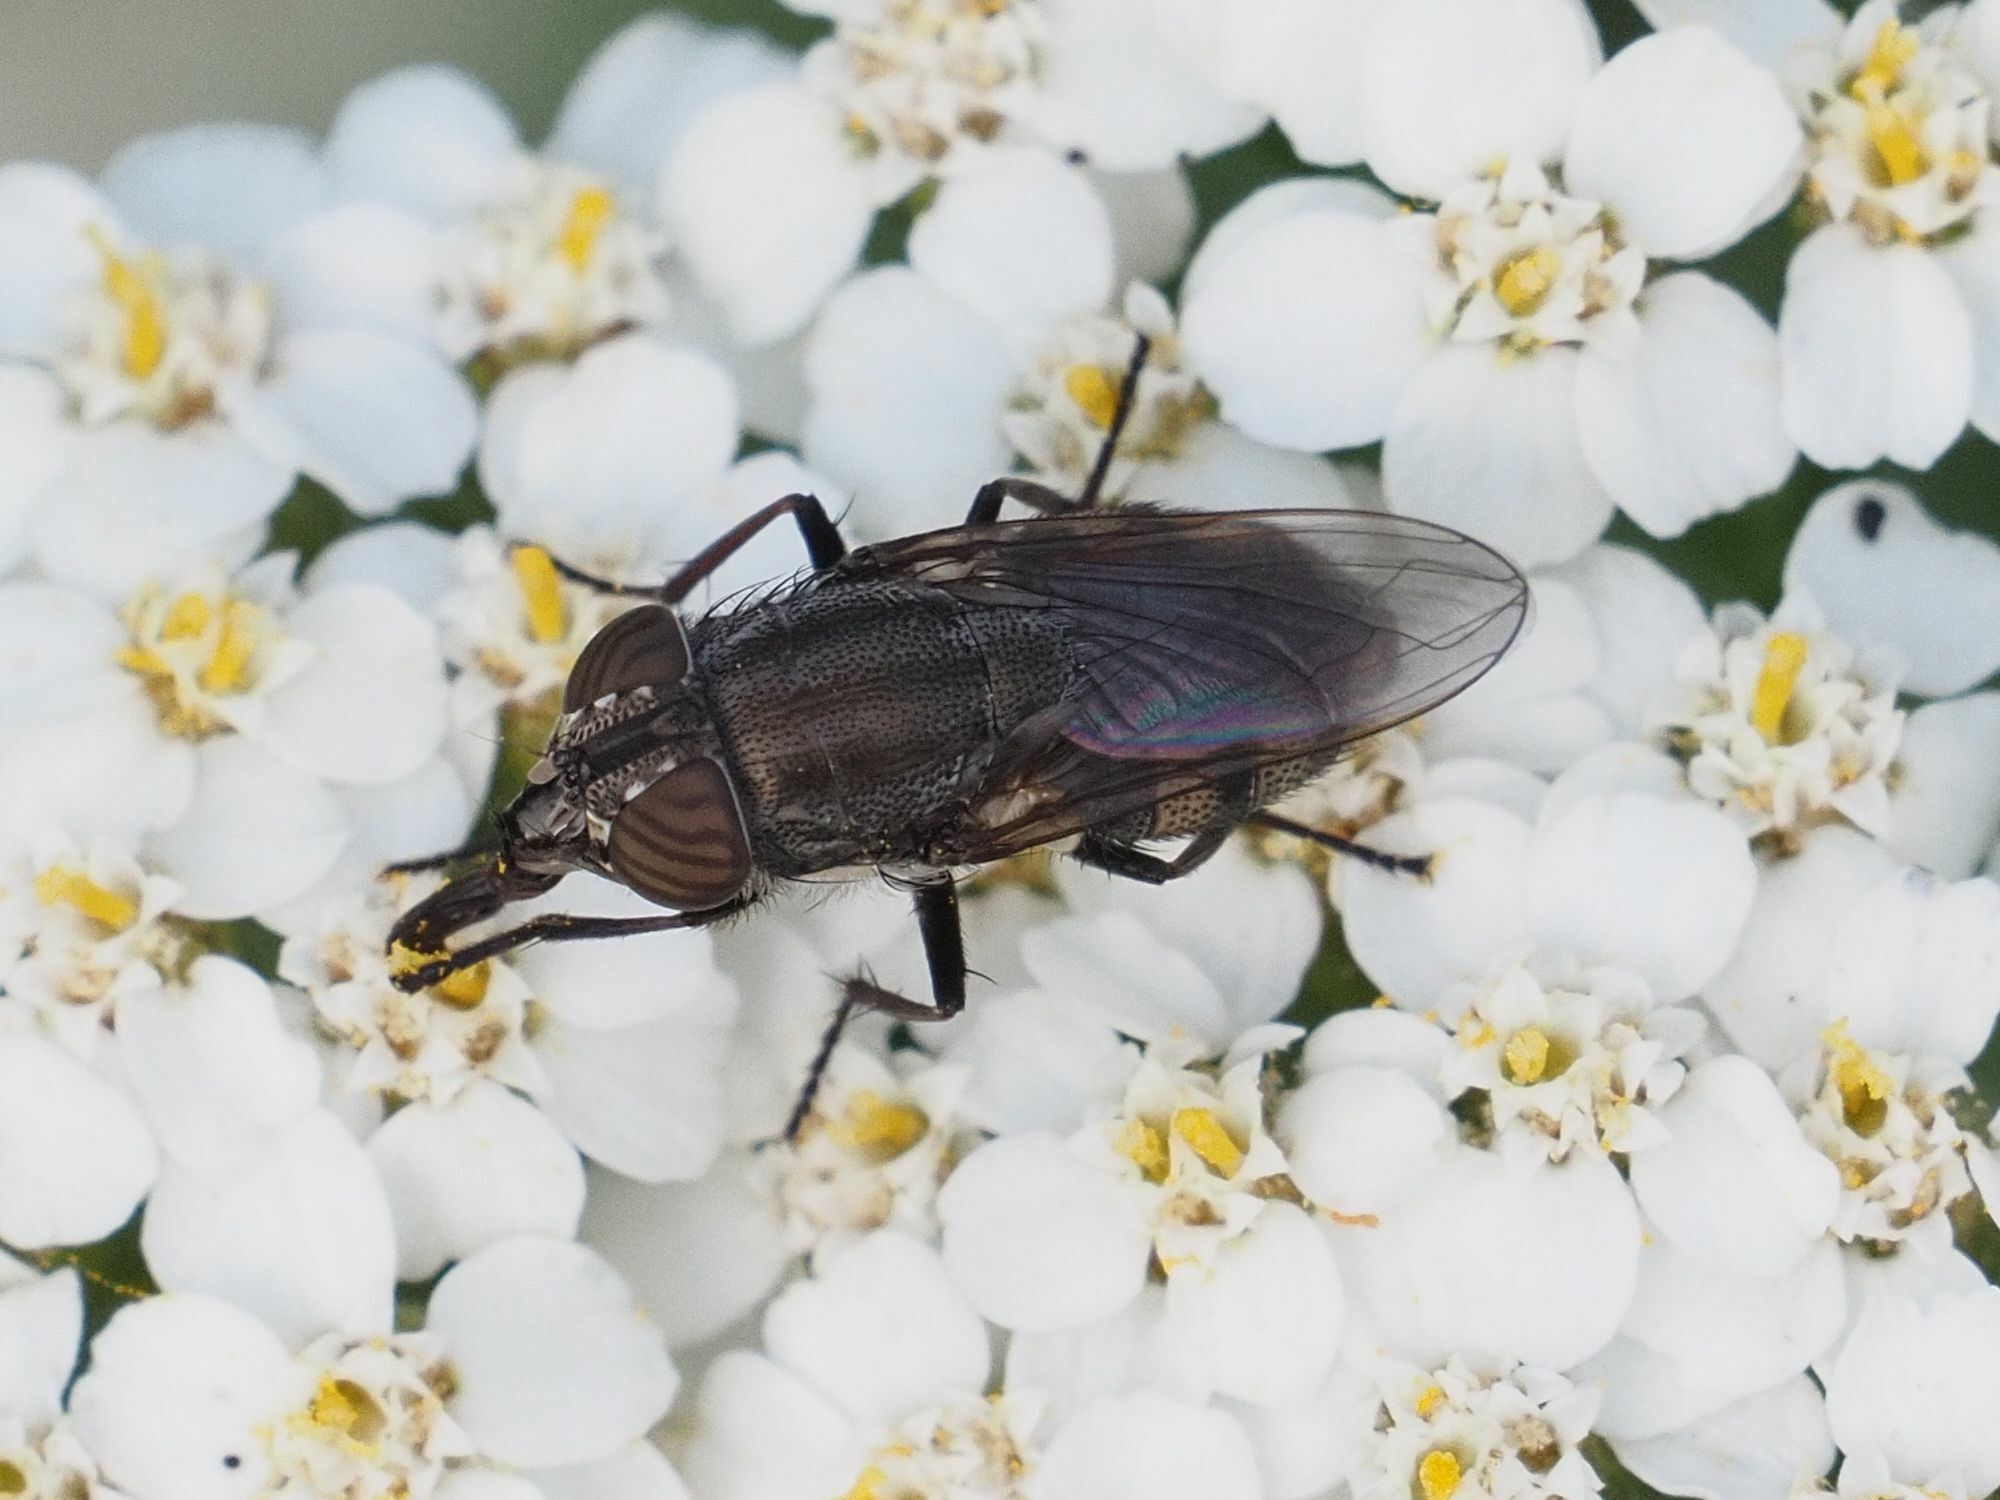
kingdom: Animalia
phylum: Arthropoda
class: Insecta
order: Diptera
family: Calliphoridae
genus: Stomorhina
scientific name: Stomorhina lunata
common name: Locust blowfly
